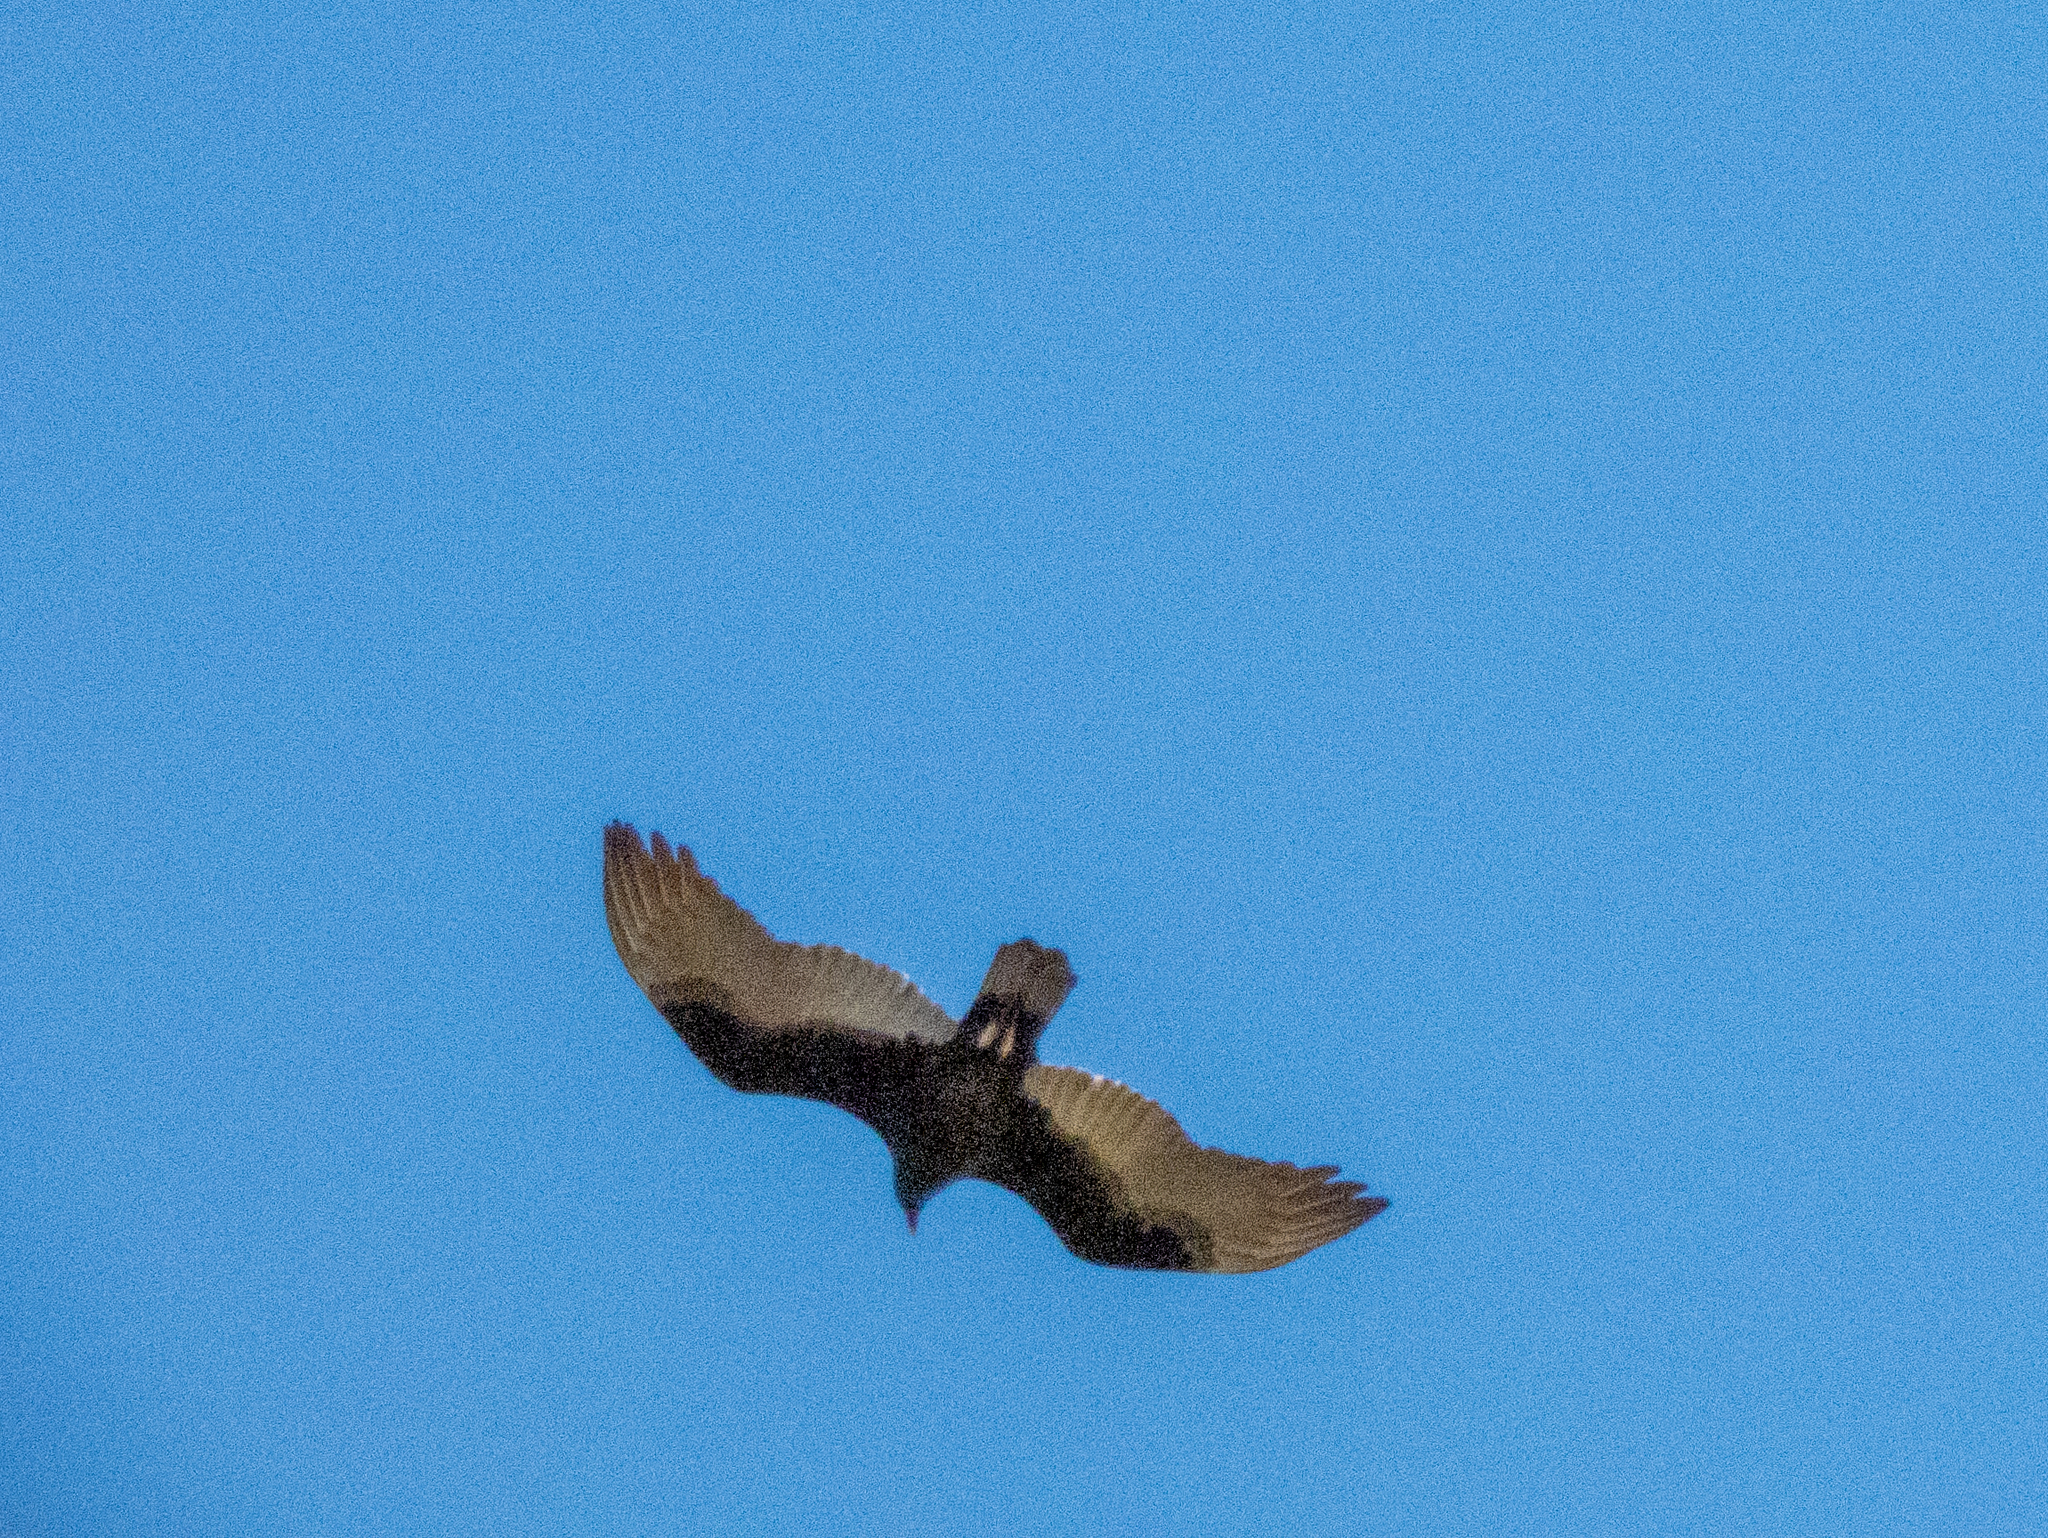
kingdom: Animalia
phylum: Chordata
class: Aves
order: Accipitriformes
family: Cathartidae
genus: Cathartes
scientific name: Cathartes aura
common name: Turkey vulture
